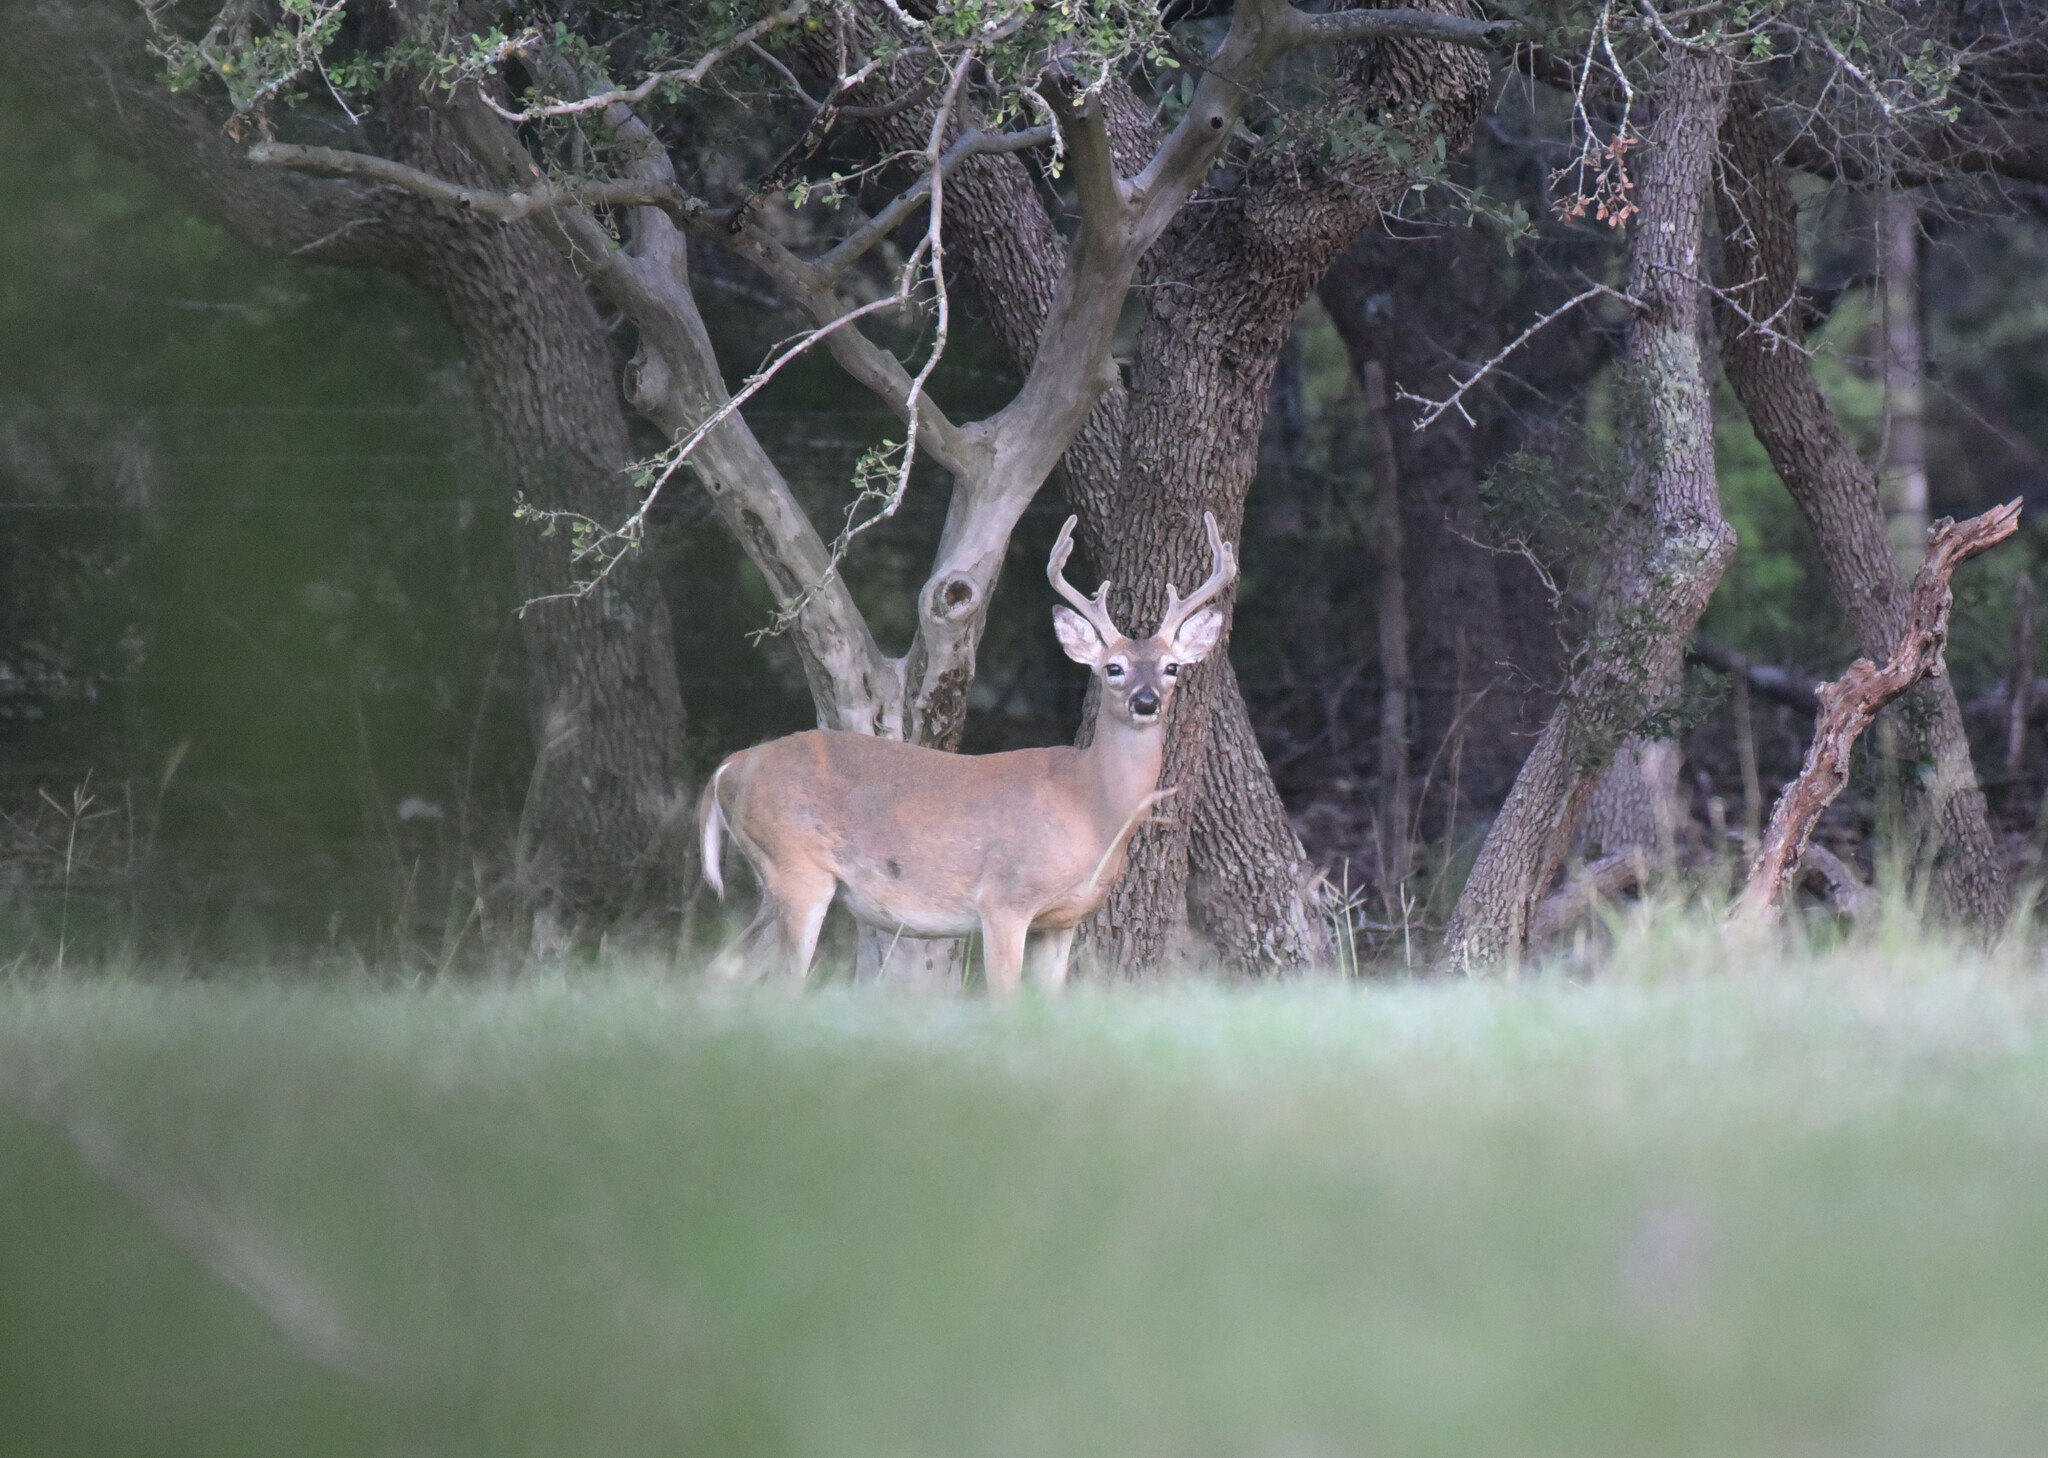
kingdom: Animalia
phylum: Chordata
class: Mammalia
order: Artiodactyla
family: Cervidae
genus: Odocoileus
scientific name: Odocoileus virginianus
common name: White-tailed deer
